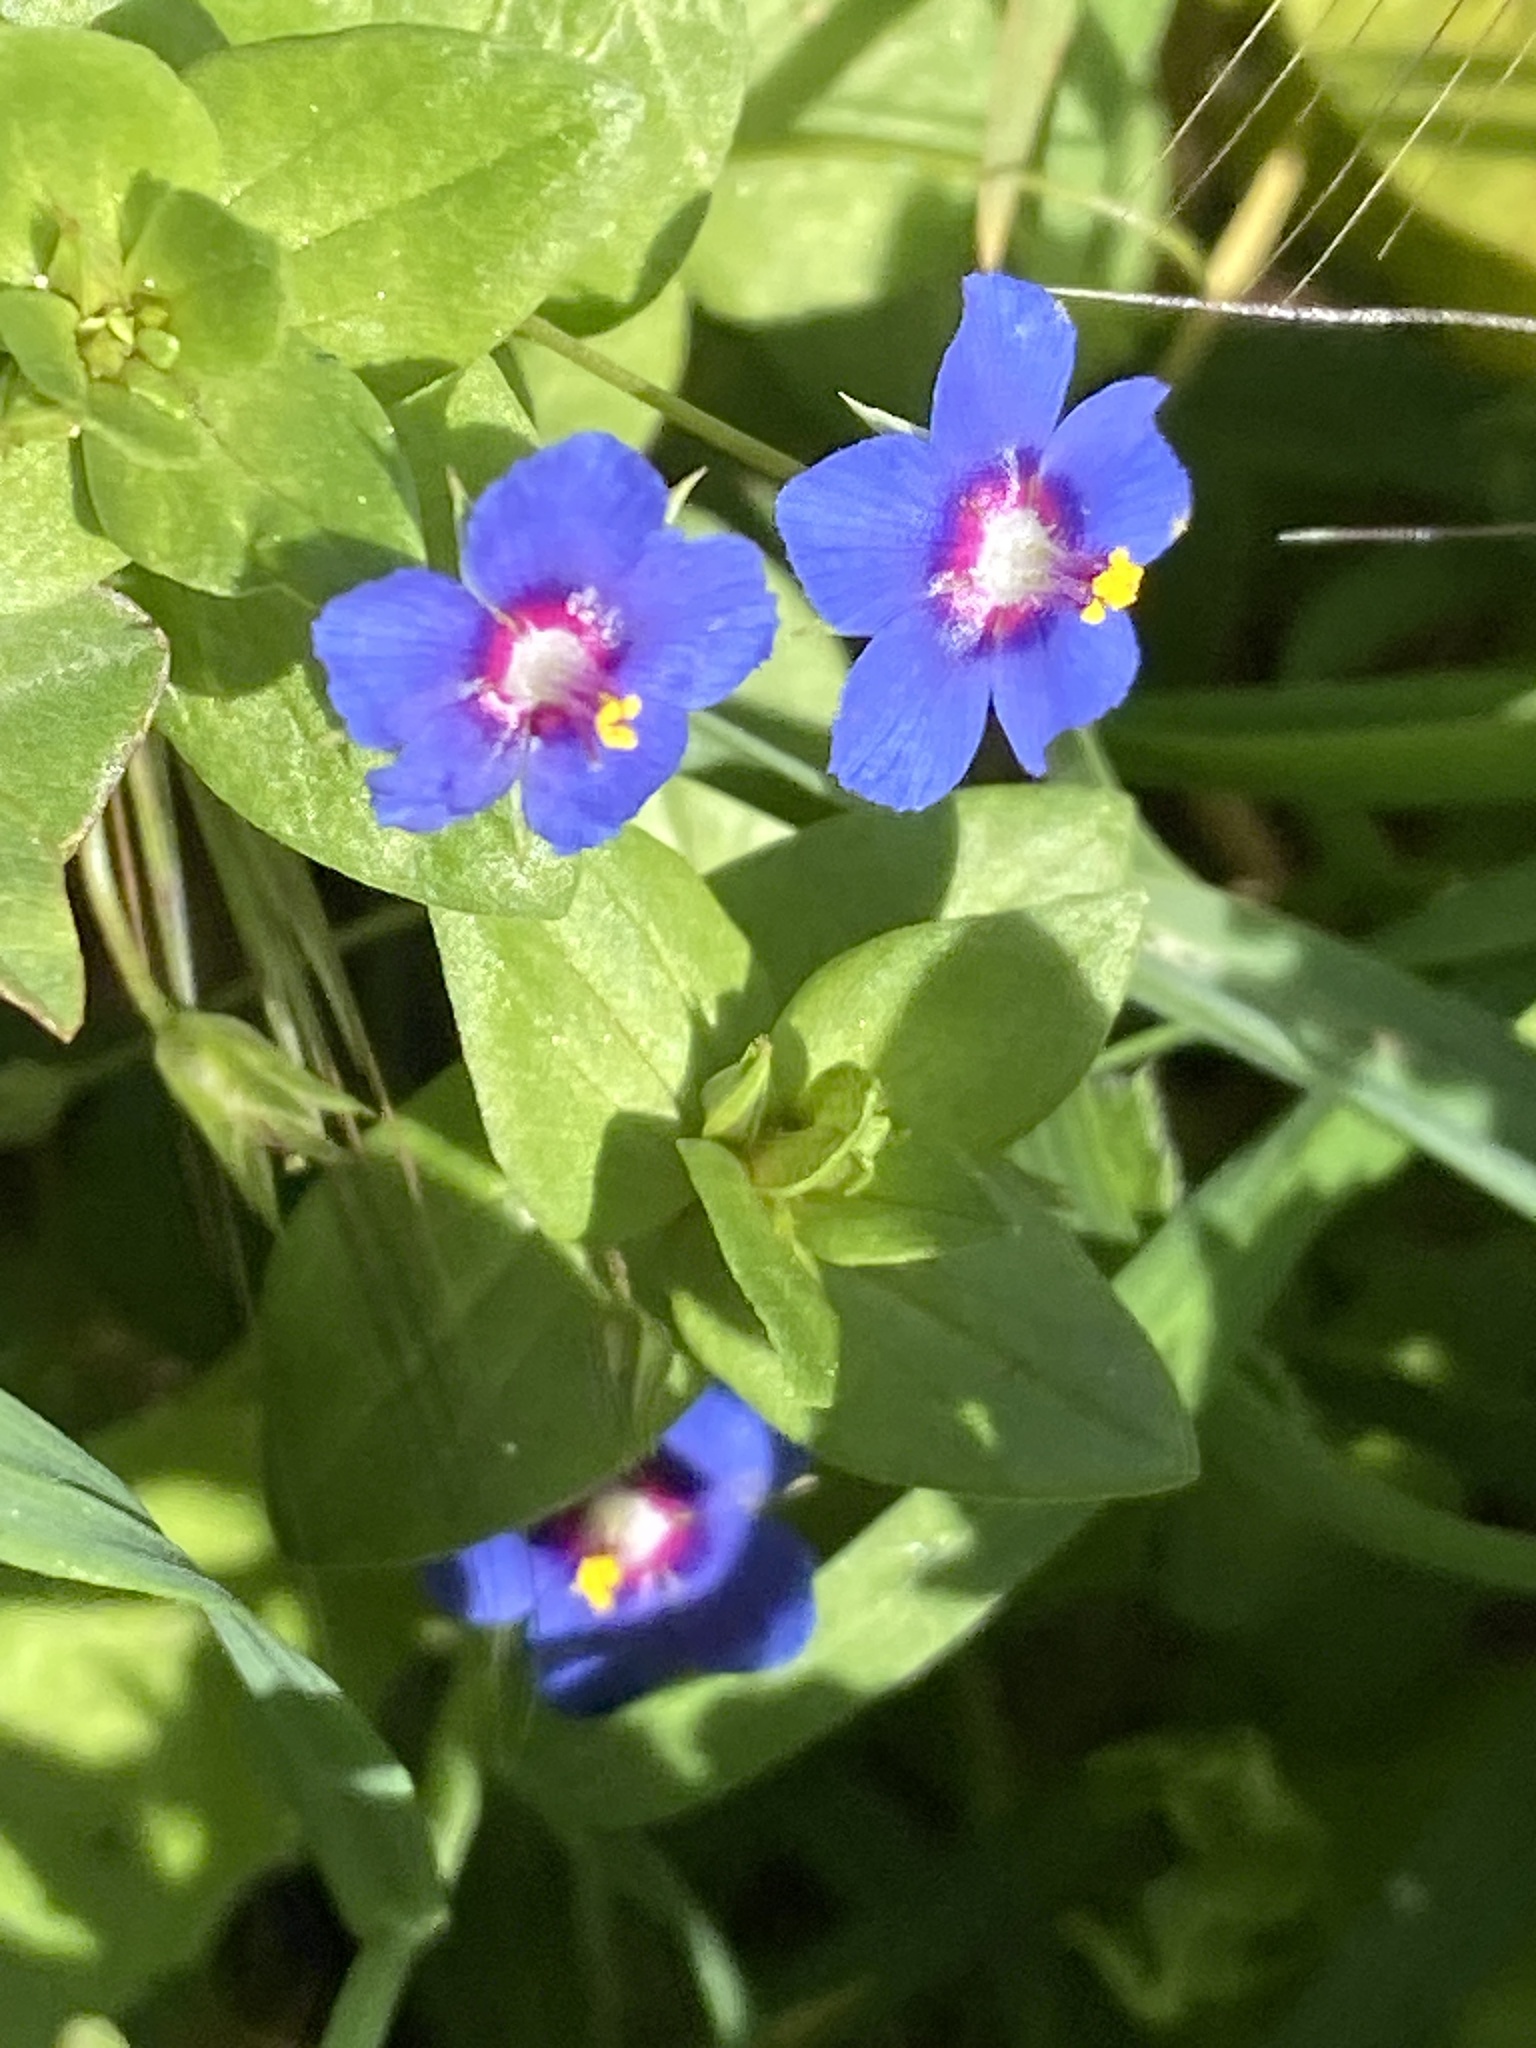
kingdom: Plantae
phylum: Tracheophyta
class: Magnoliopsida
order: Ericales
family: Primulaceae
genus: Lysimachia
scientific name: Lysimachia loeflingii
